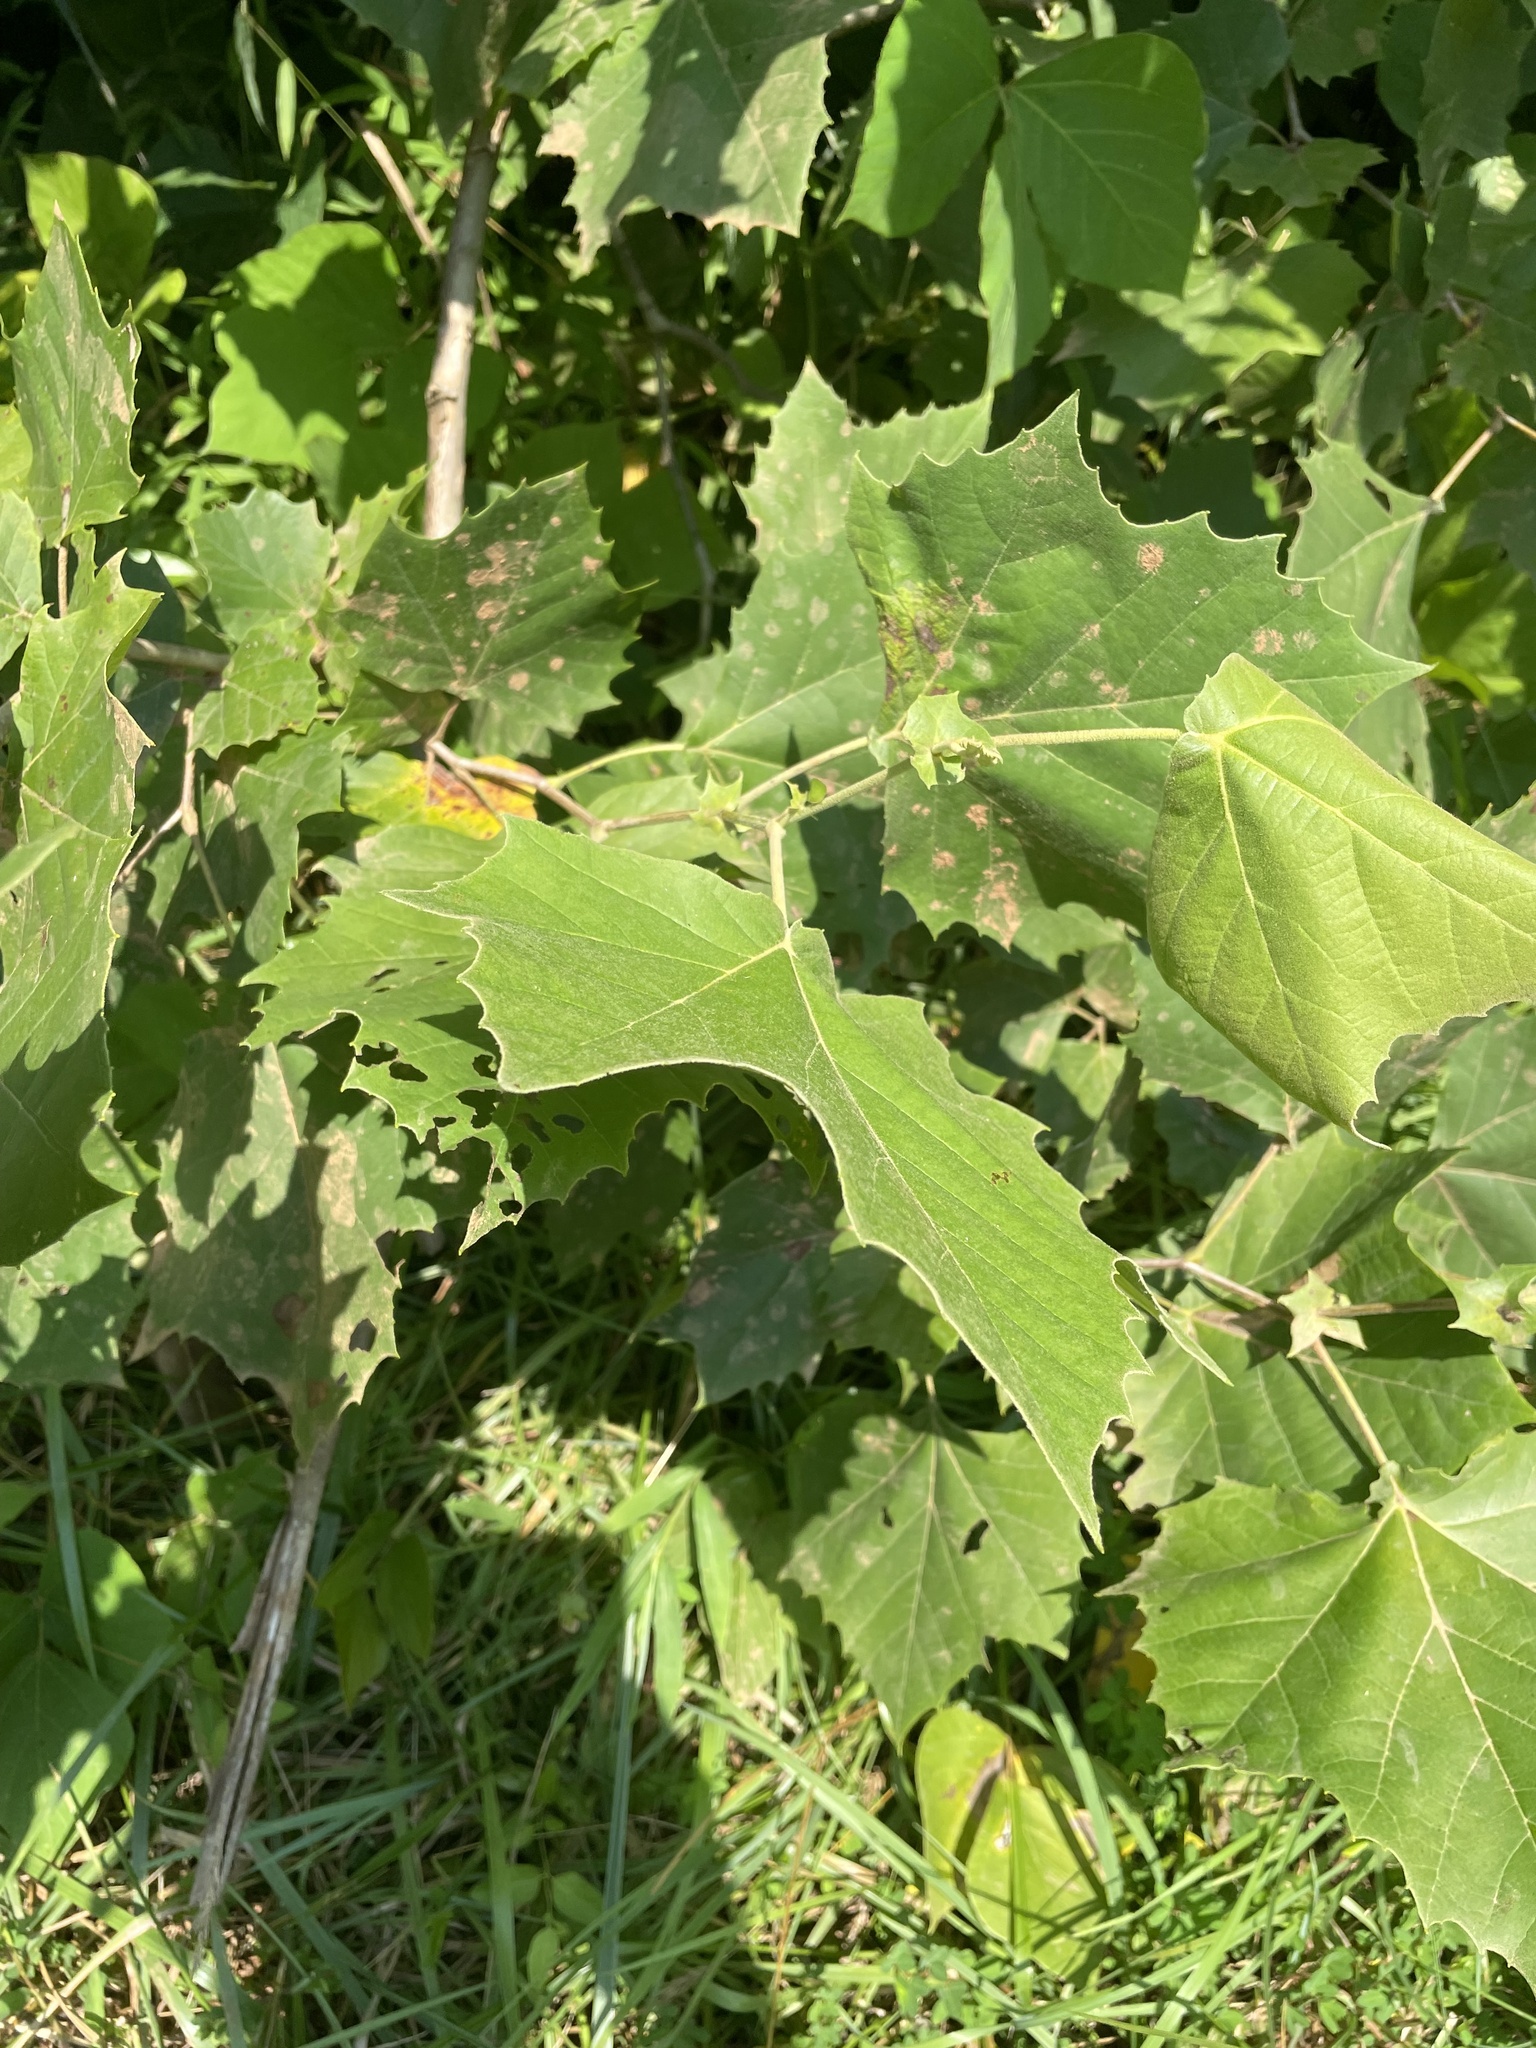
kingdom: Plantae
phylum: Tracheophyta
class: Magnoliopsida
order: Proteales
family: Platanaceae
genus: Platanus
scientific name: Platanus occidentalis
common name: American sycamore
